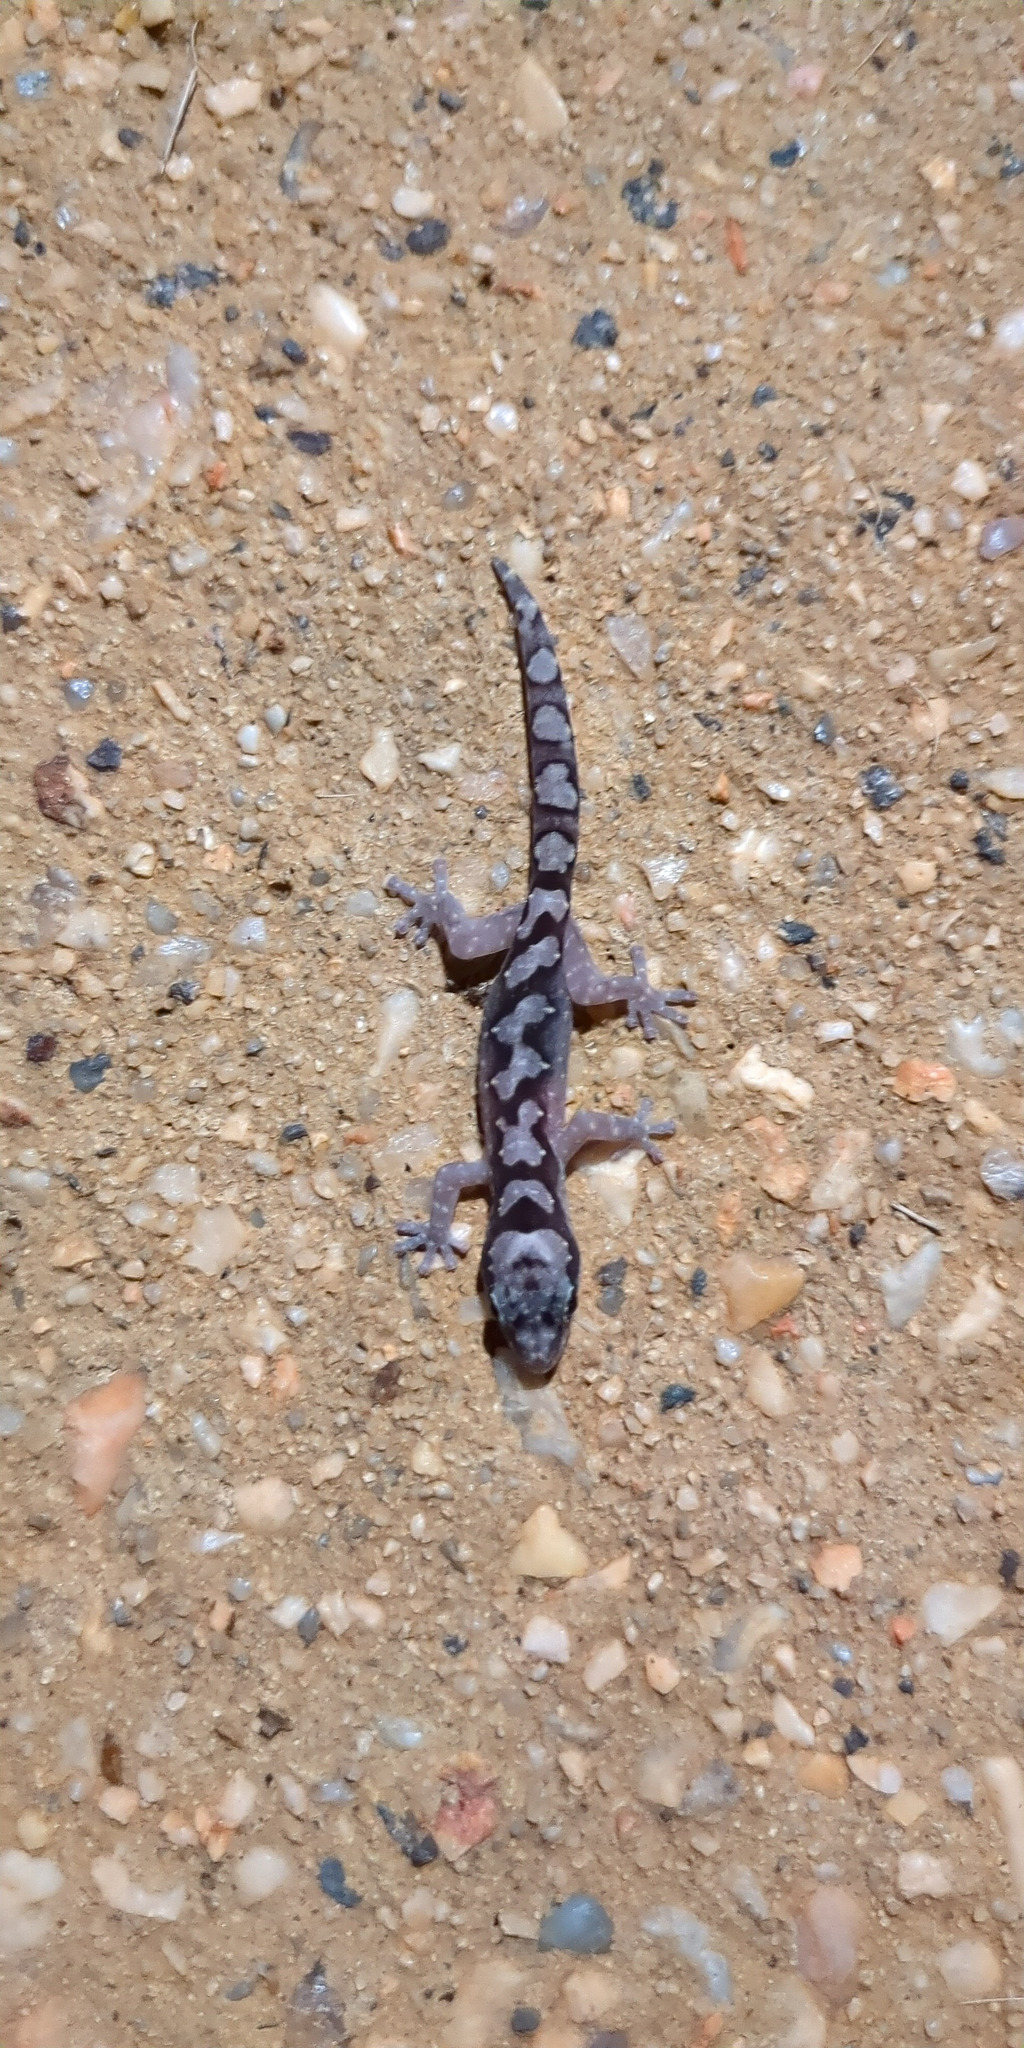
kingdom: Animalia
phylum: Chordata
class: Squamata
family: Diplodactylidae
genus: Nebulifera
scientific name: Nebulifera robusta
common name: Robust gecko
